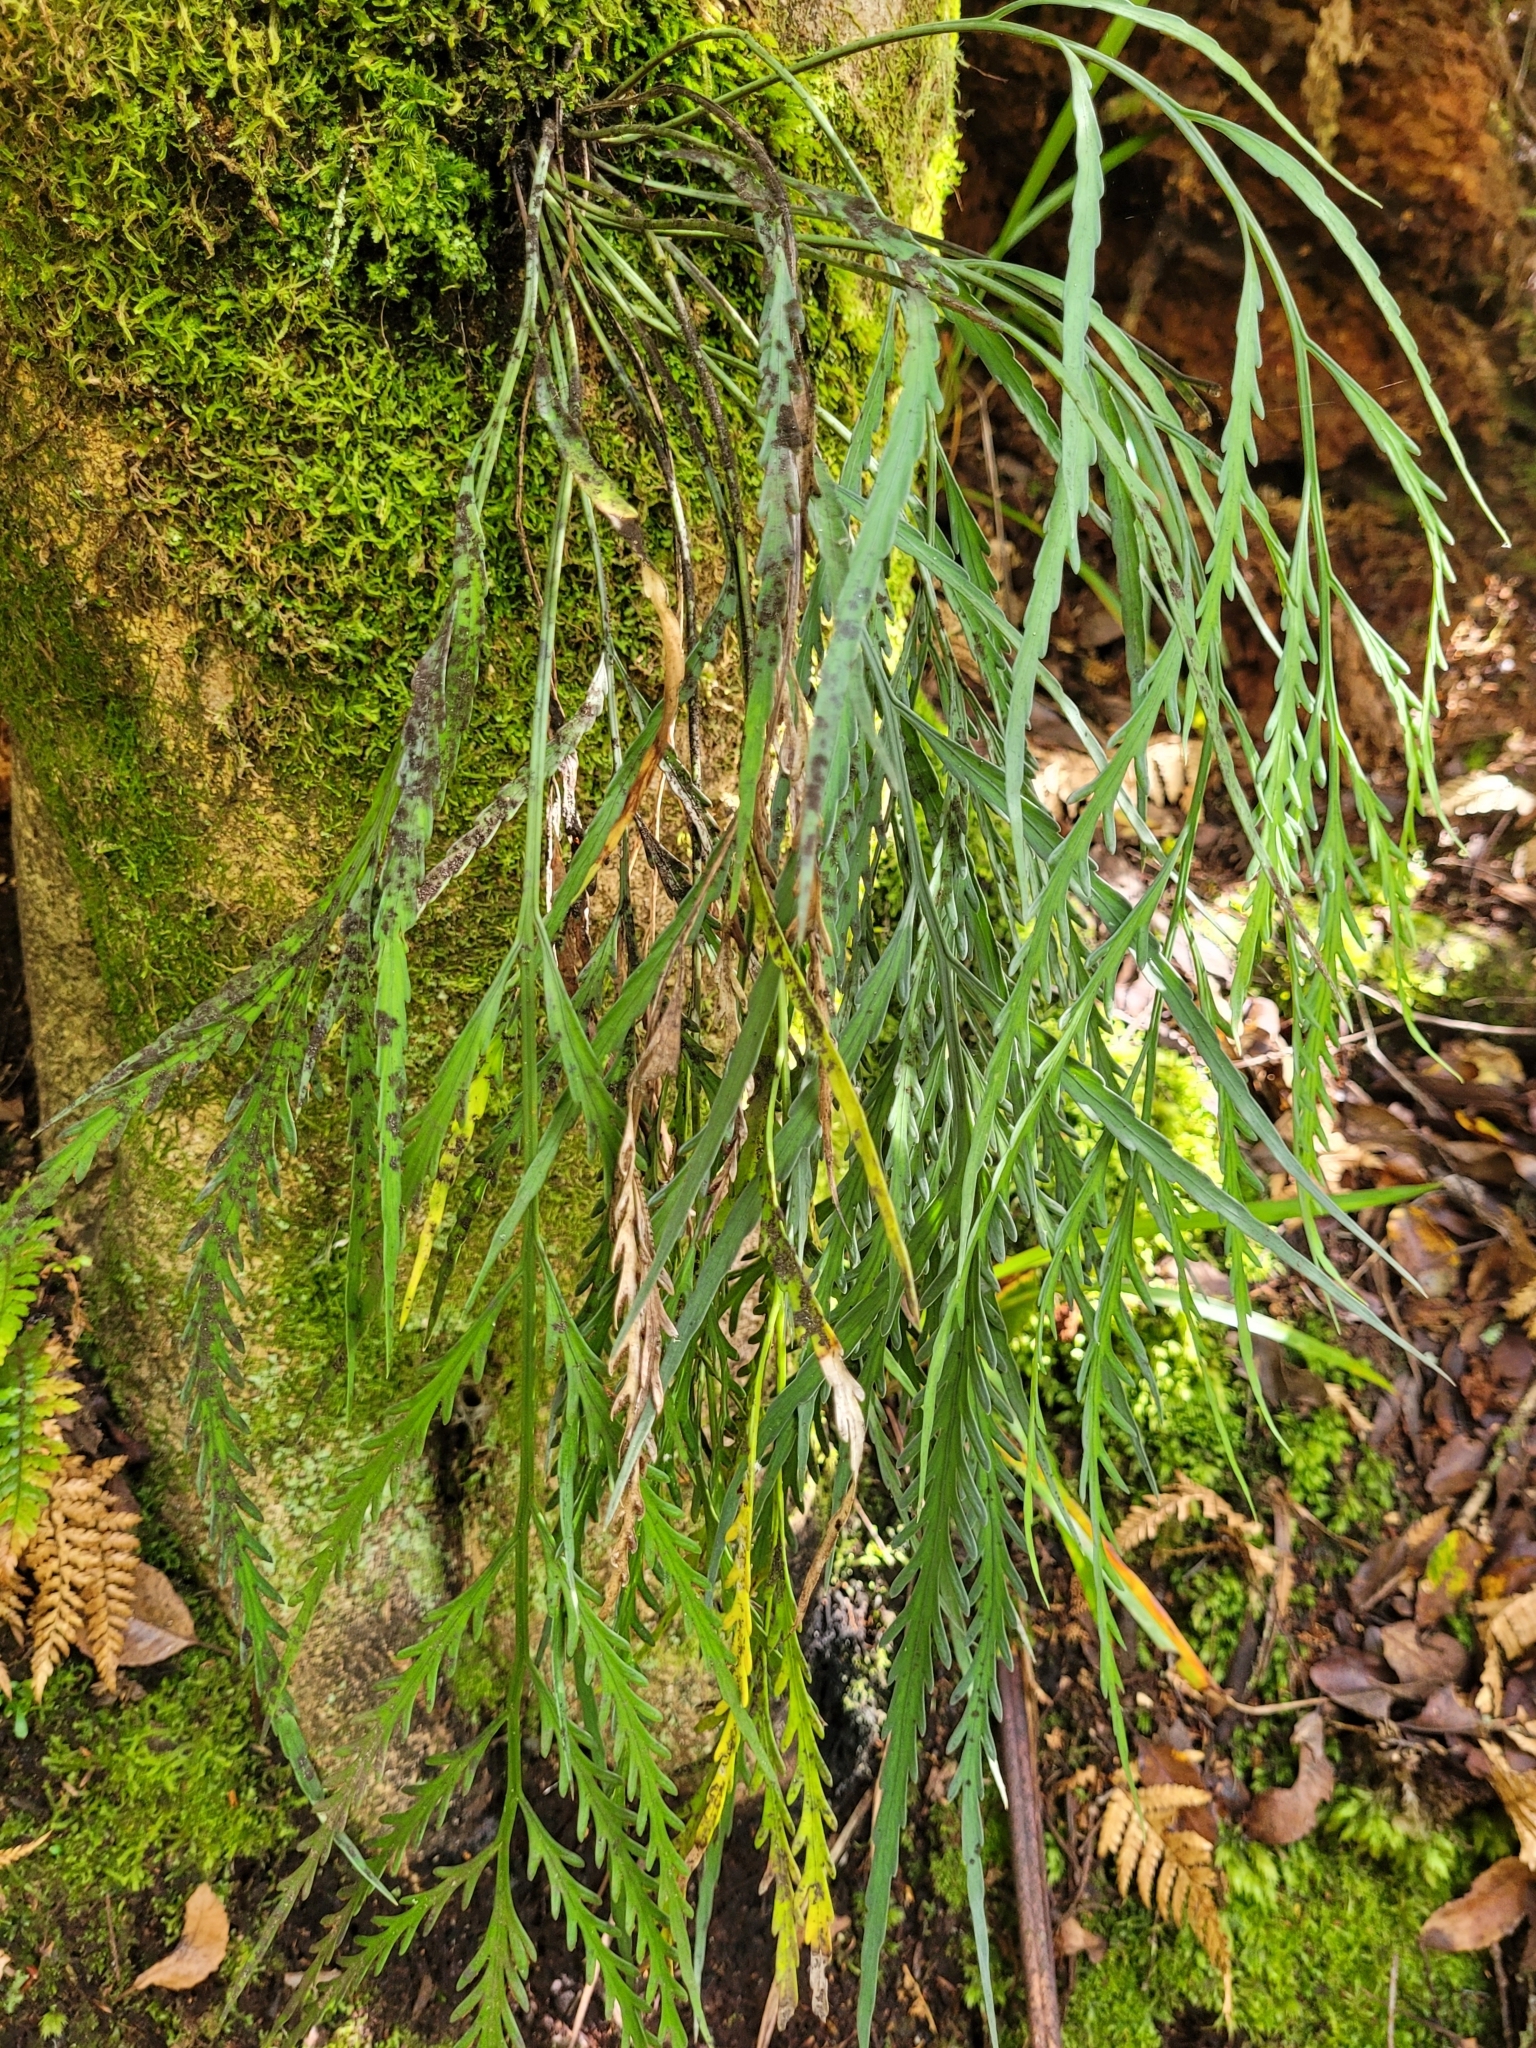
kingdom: Plantae
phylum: Tracheophyta
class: Polypodiopsida
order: Polypodiales
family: Aspleniaceae
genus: Asplenium
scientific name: Asplenium flaccidum
